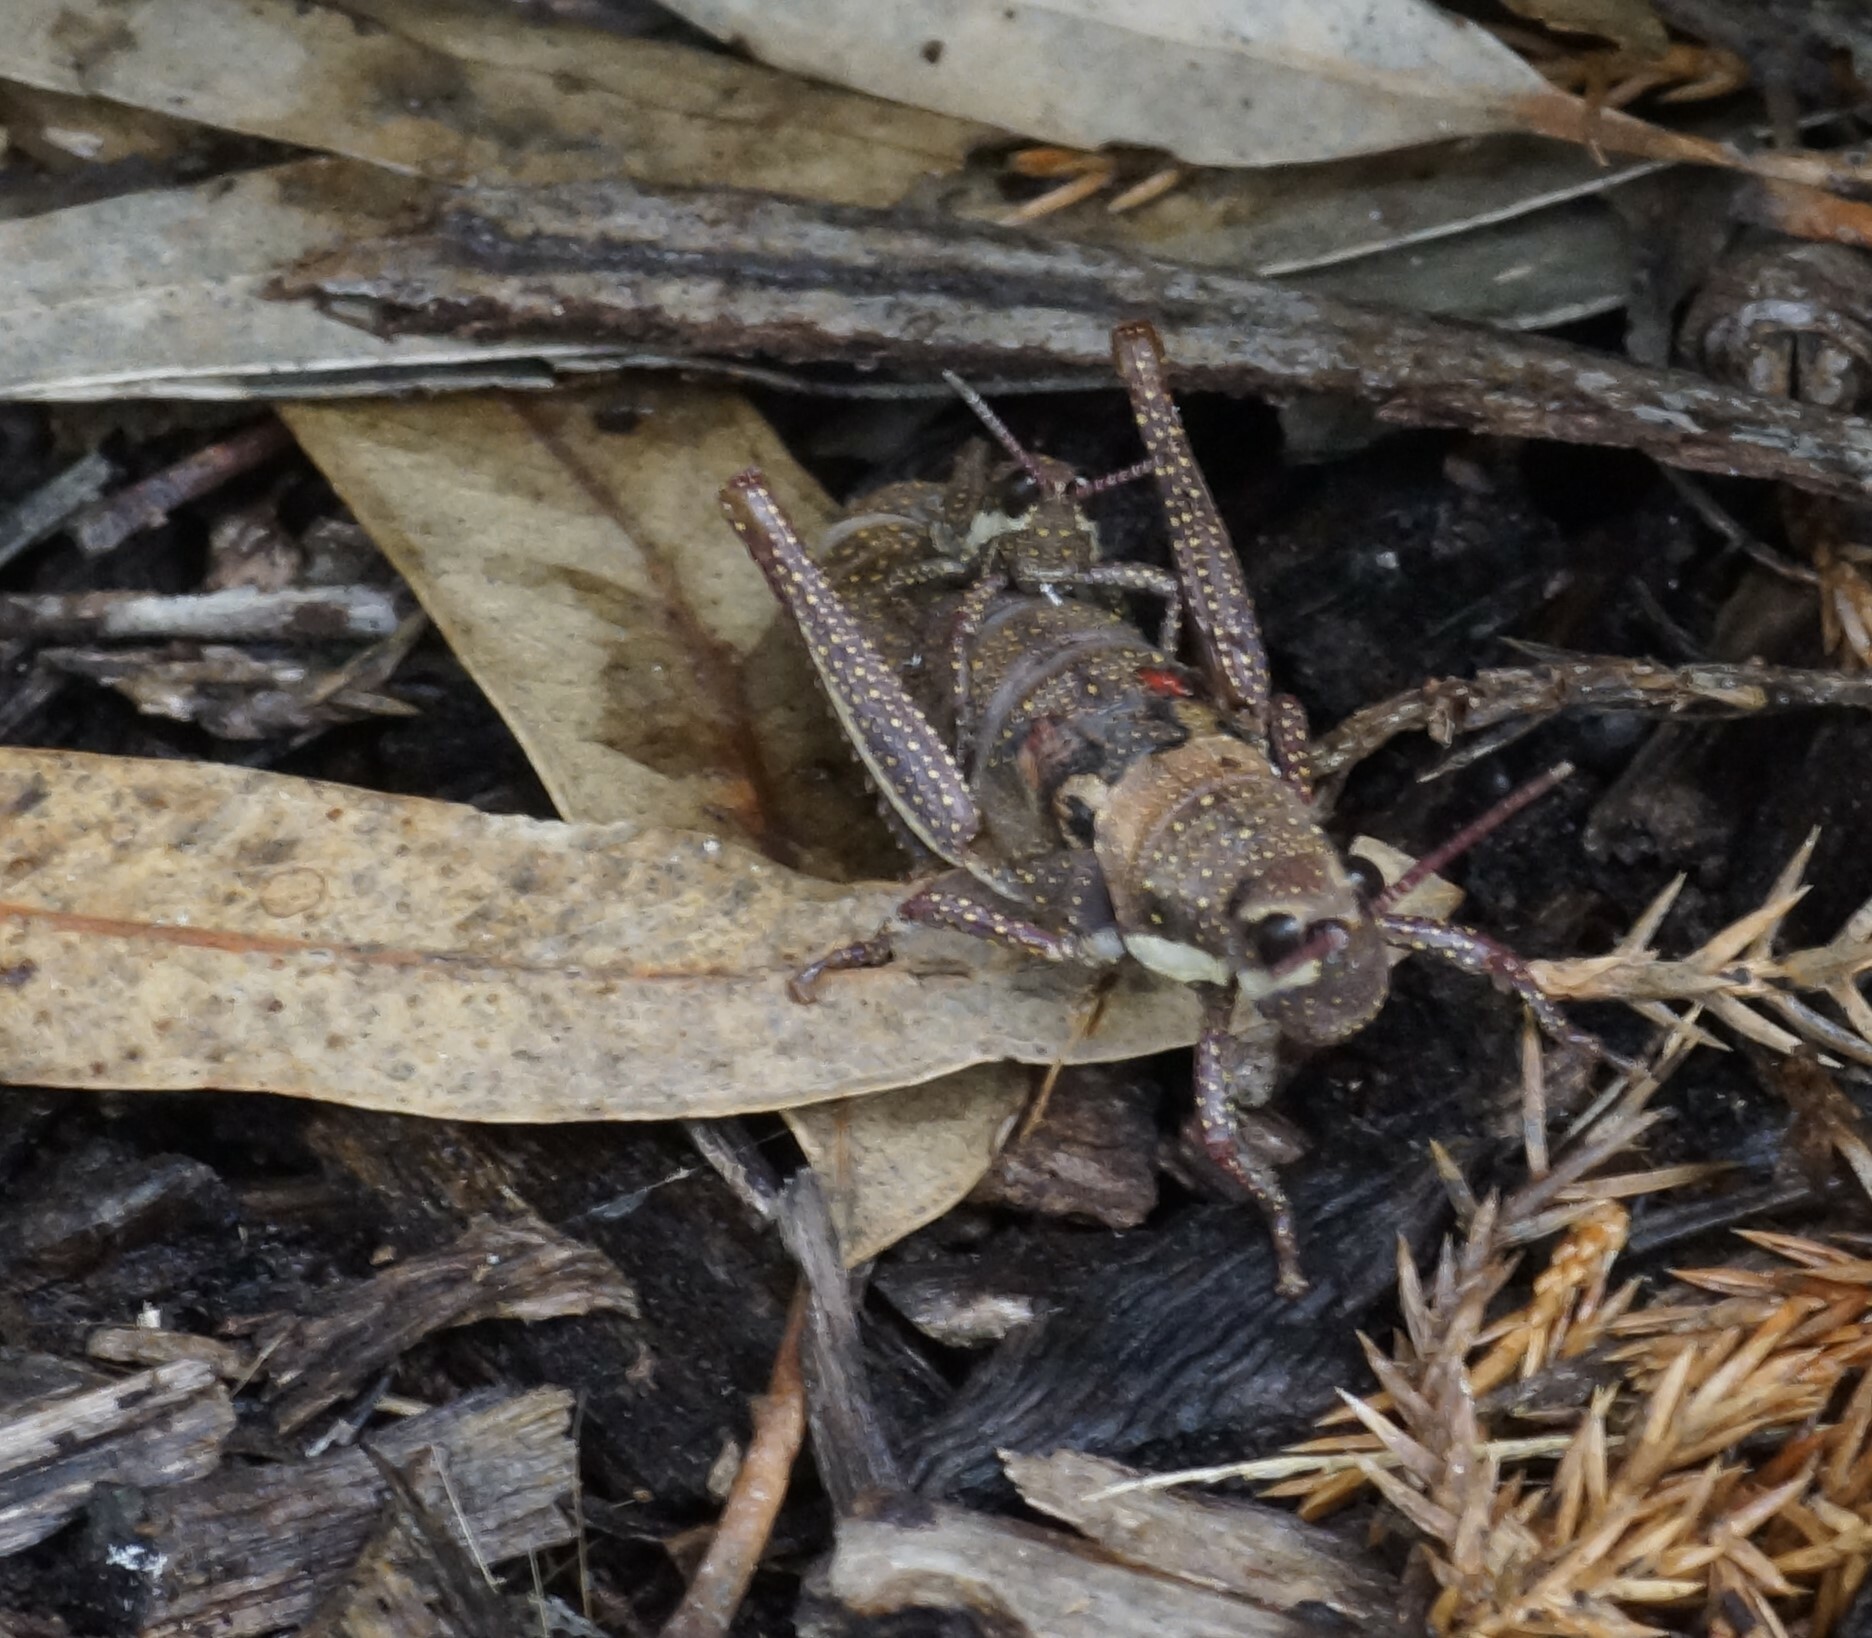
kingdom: Animalia
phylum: Arthropoda
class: Insecta
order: Orthoptera
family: Pyrgomorphidae
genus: Monistria
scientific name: Monistria discrepans
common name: Common pyrgomorph
